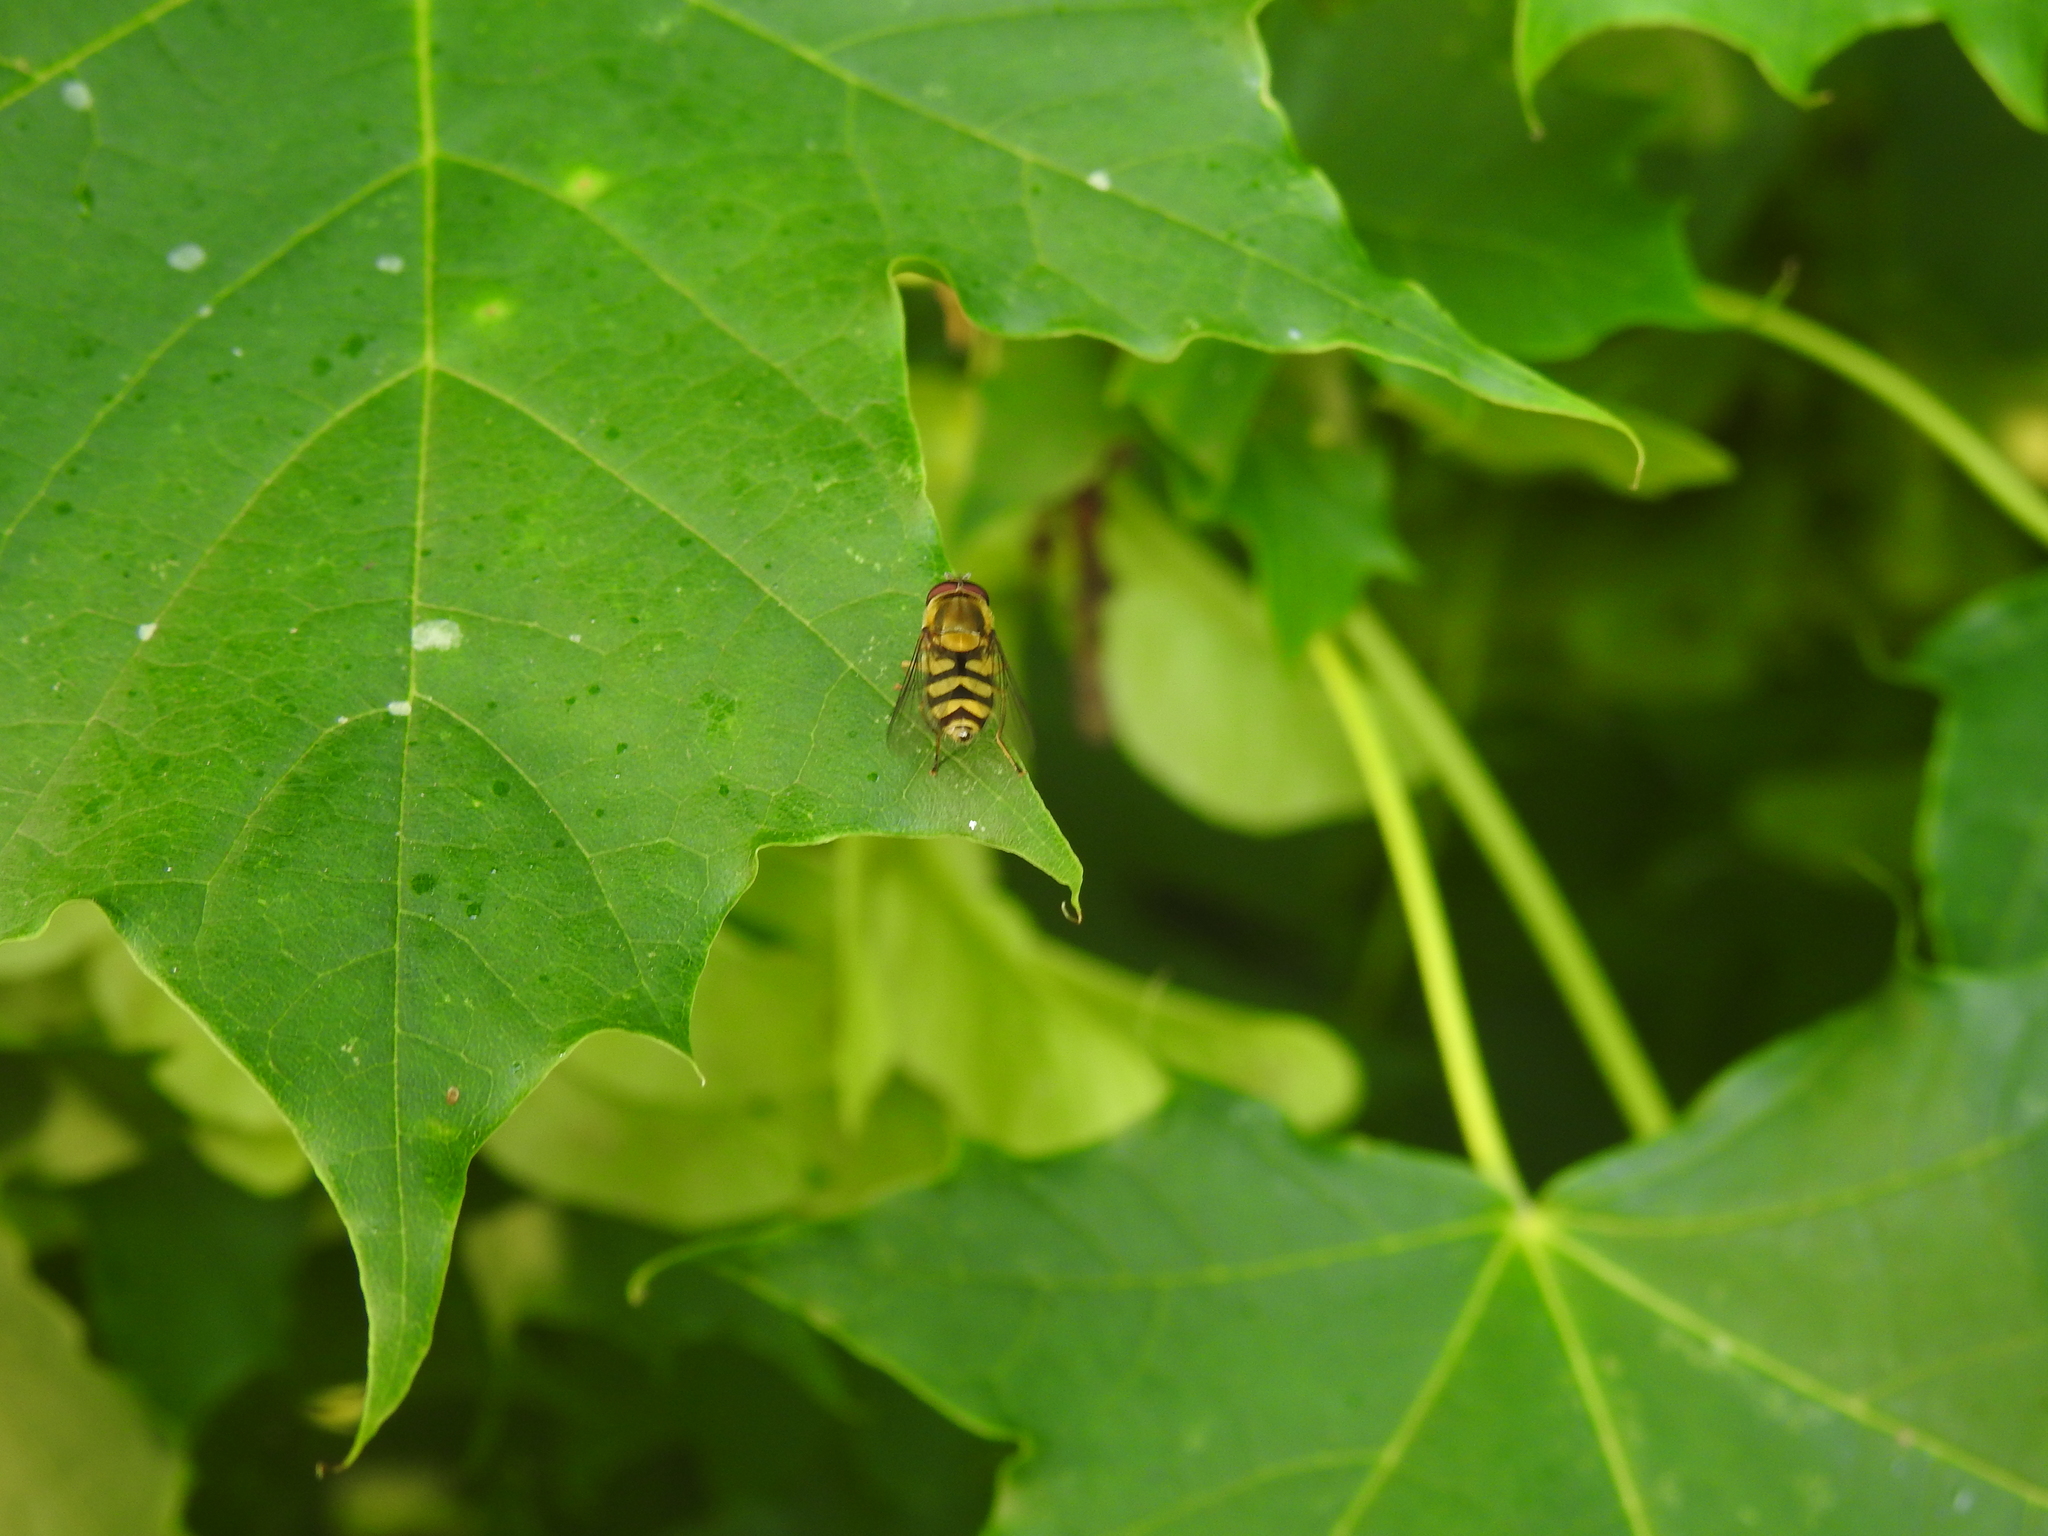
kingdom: Animalia
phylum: Arthropoda
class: Insecta
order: Diptera
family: Syrphidae
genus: Syrphus
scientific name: Syrphus
